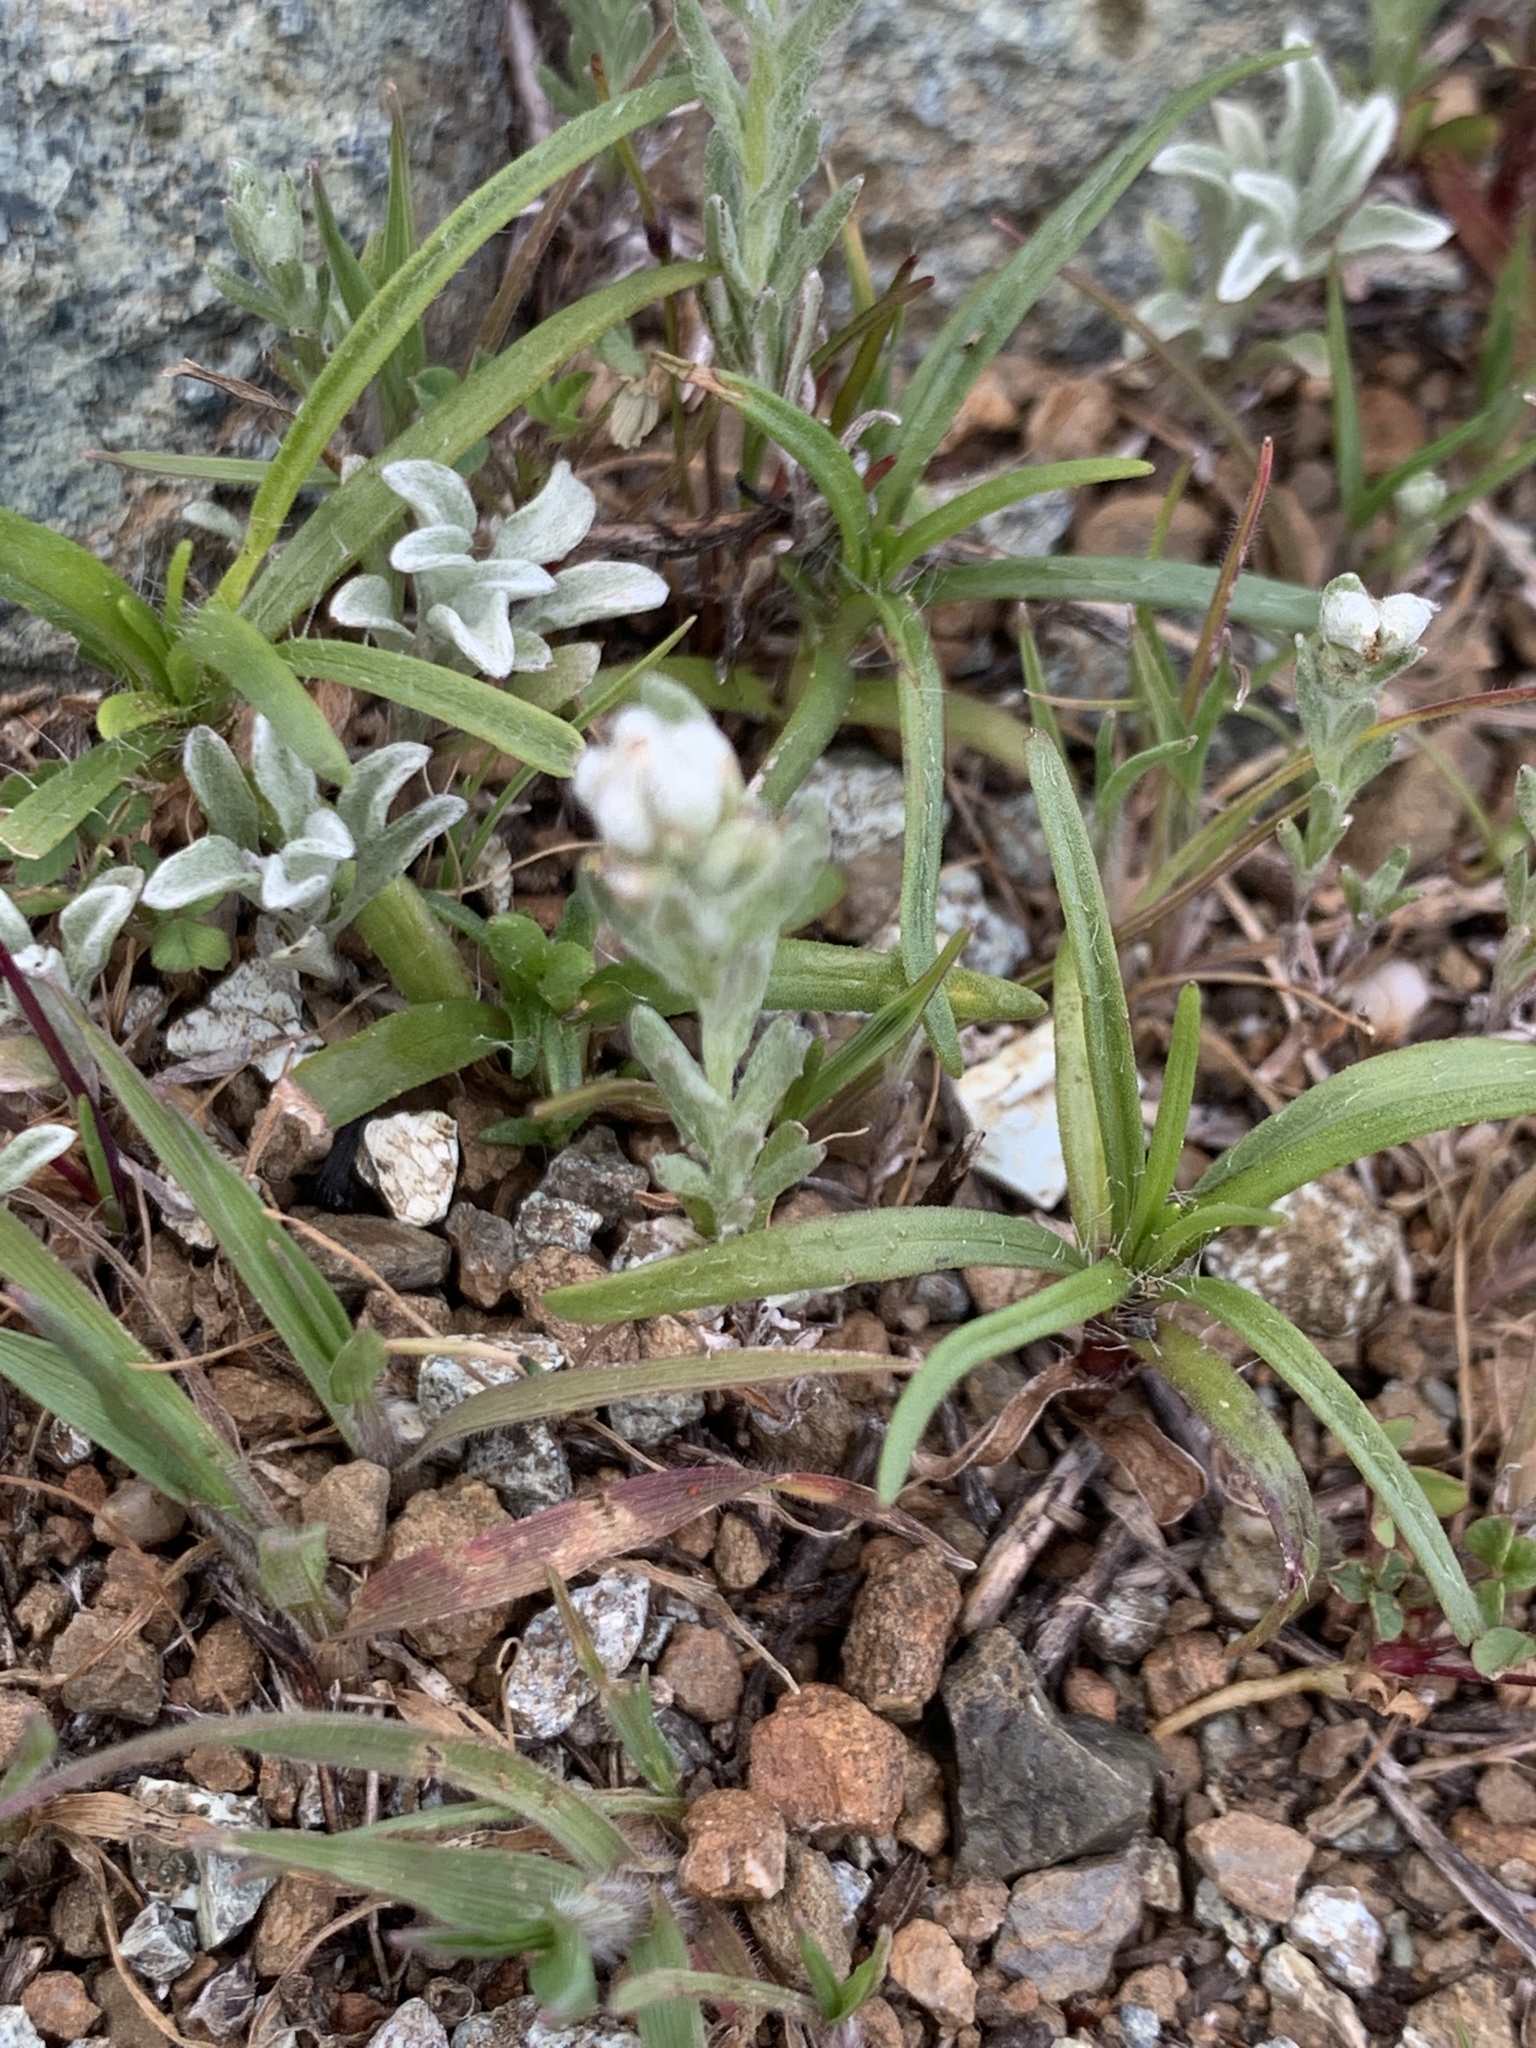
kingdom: Plantae
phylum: Tracheophyta
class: Magnoliopsida
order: Asterales
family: Asteraceae
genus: Bombycilaena
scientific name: Bombycilaena californica
